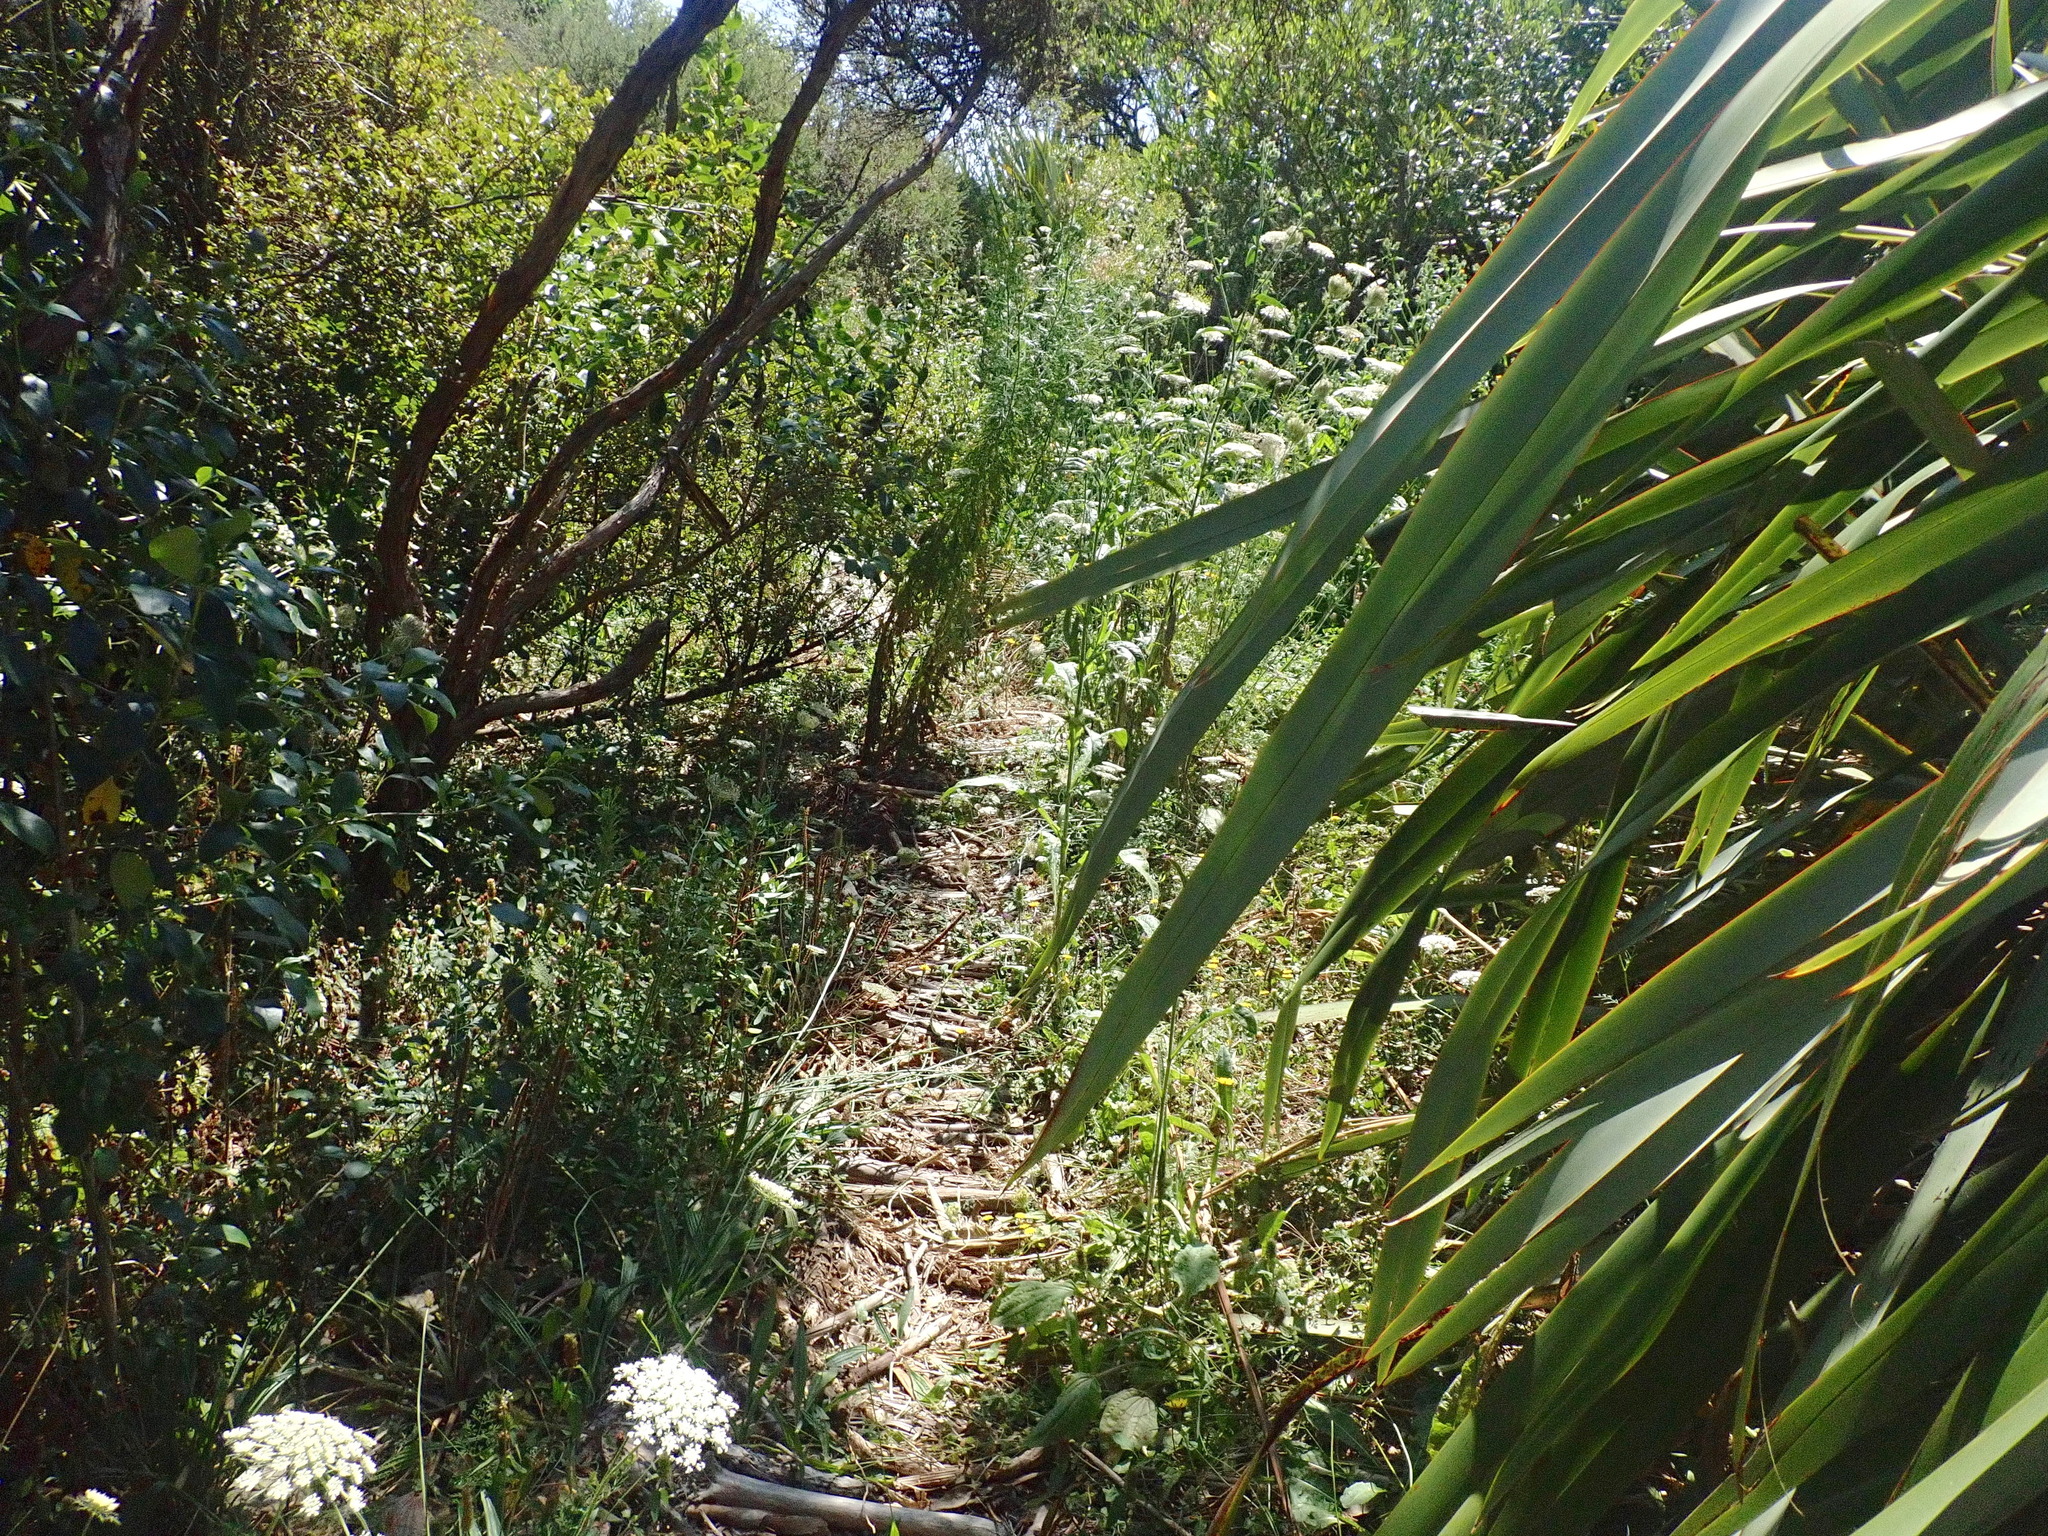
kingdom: Plantae
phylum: Tracheophyta
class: Magnoliopsida
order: Apiales
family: Apiaceae
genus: Daucus
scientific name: Daucus carota
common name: Wild carrot
